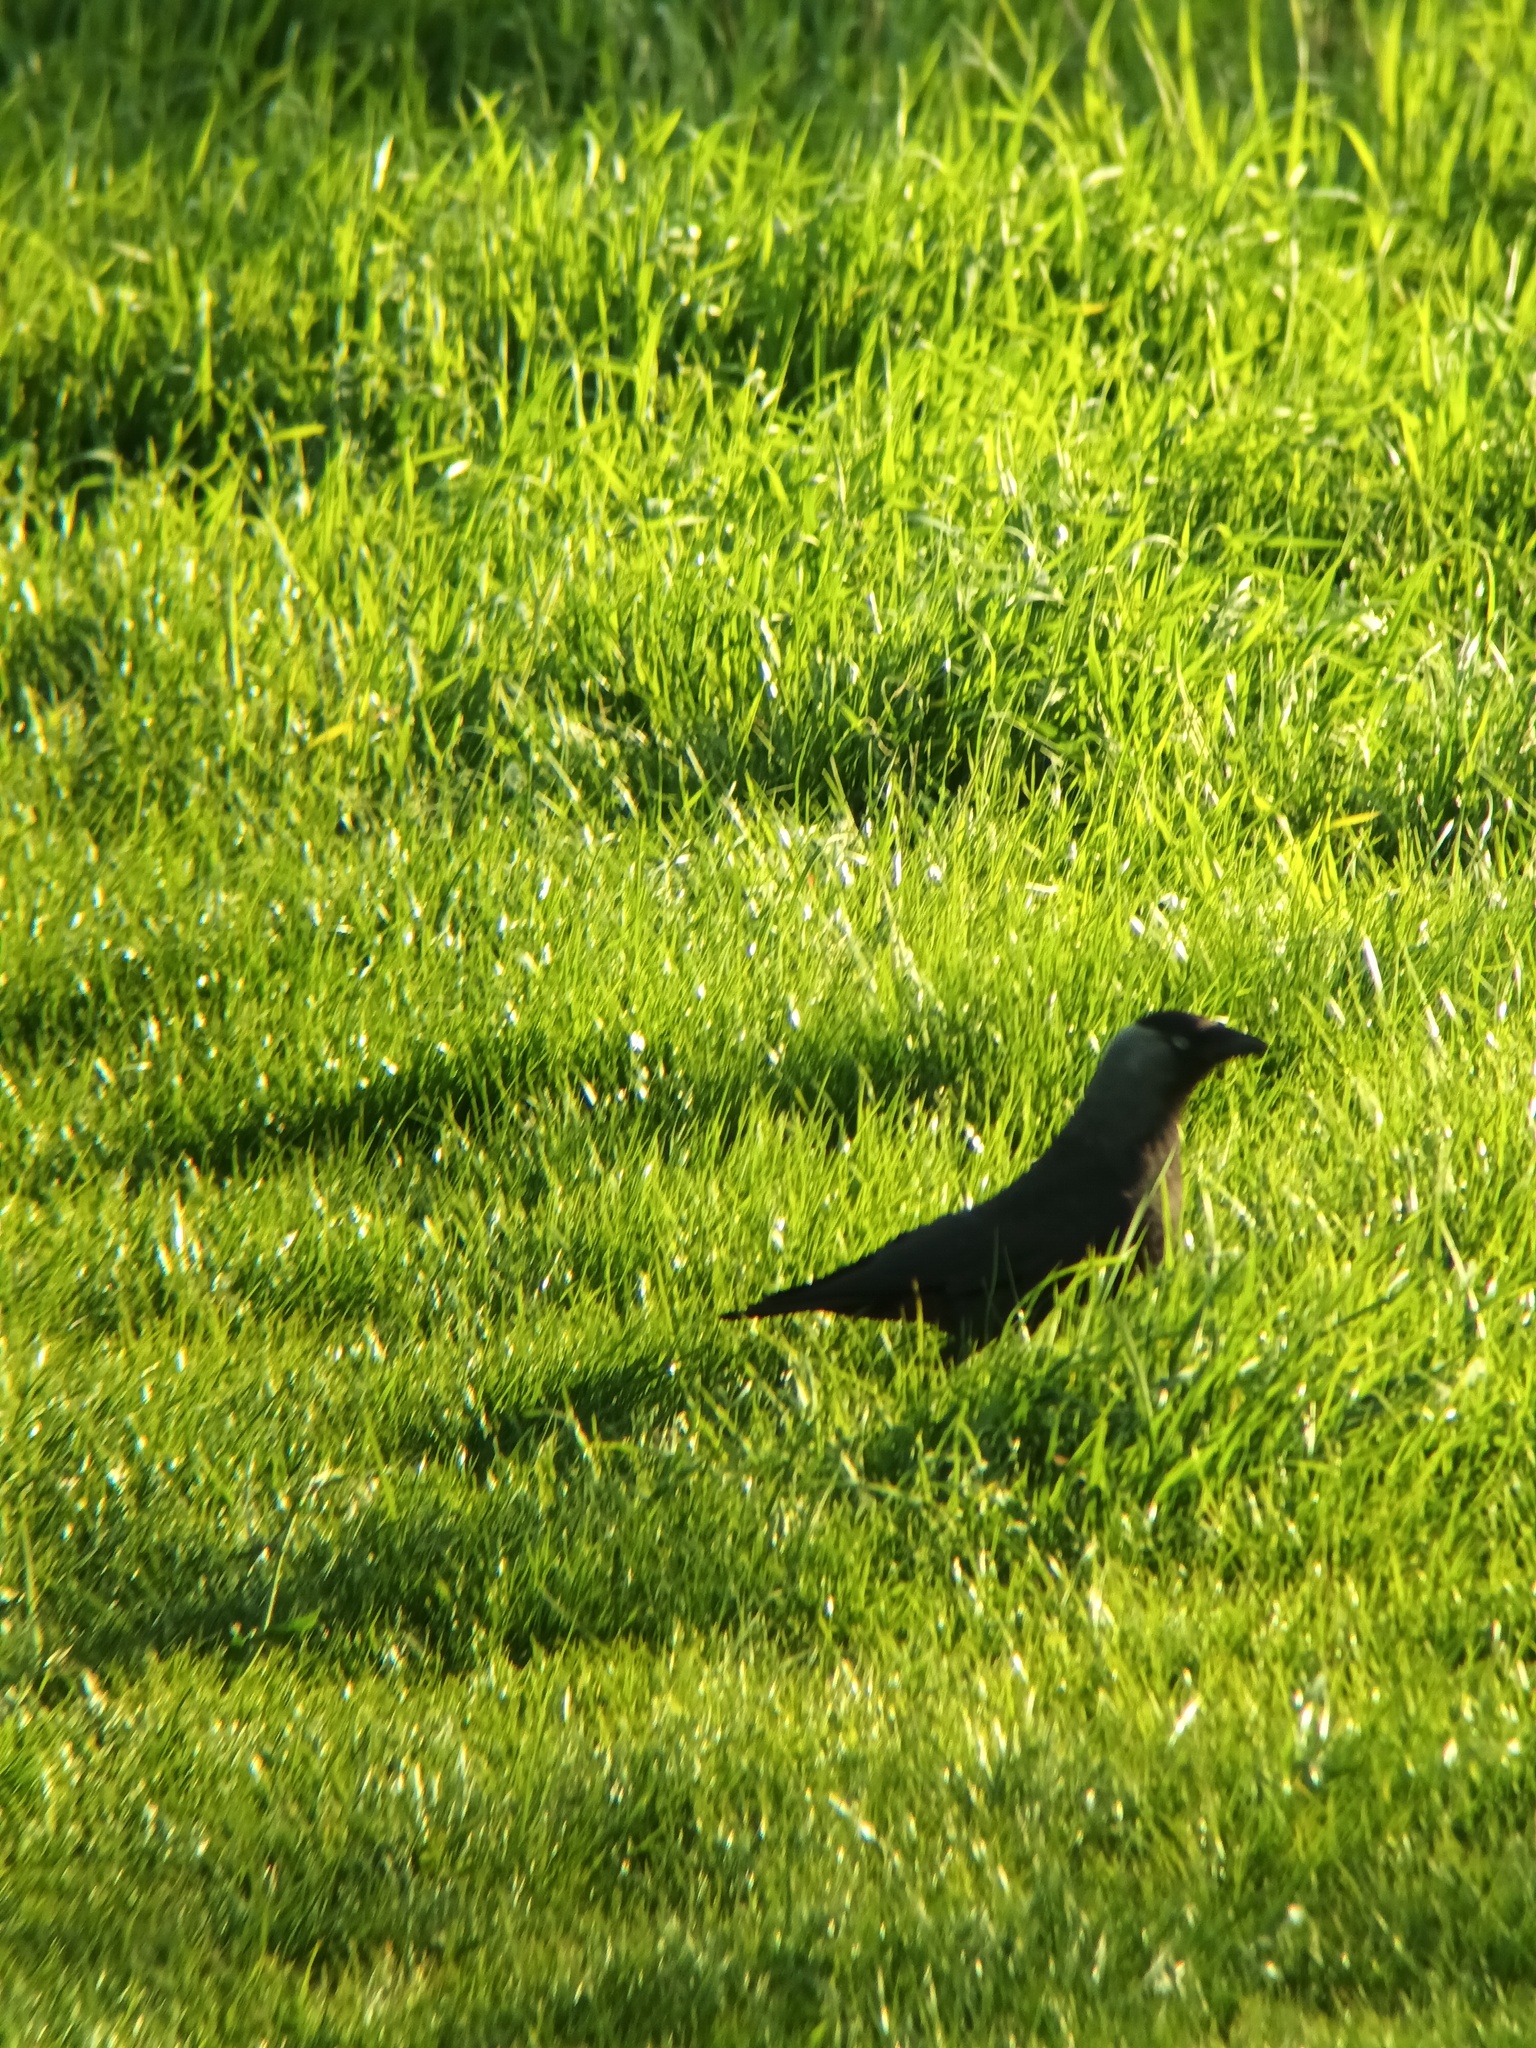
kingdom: Animalia
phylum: Chordata
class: Aves
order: Passeriformes
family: Corvidae
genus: Coloeus
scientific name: Coloeus monedula
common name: Western jackdaw
